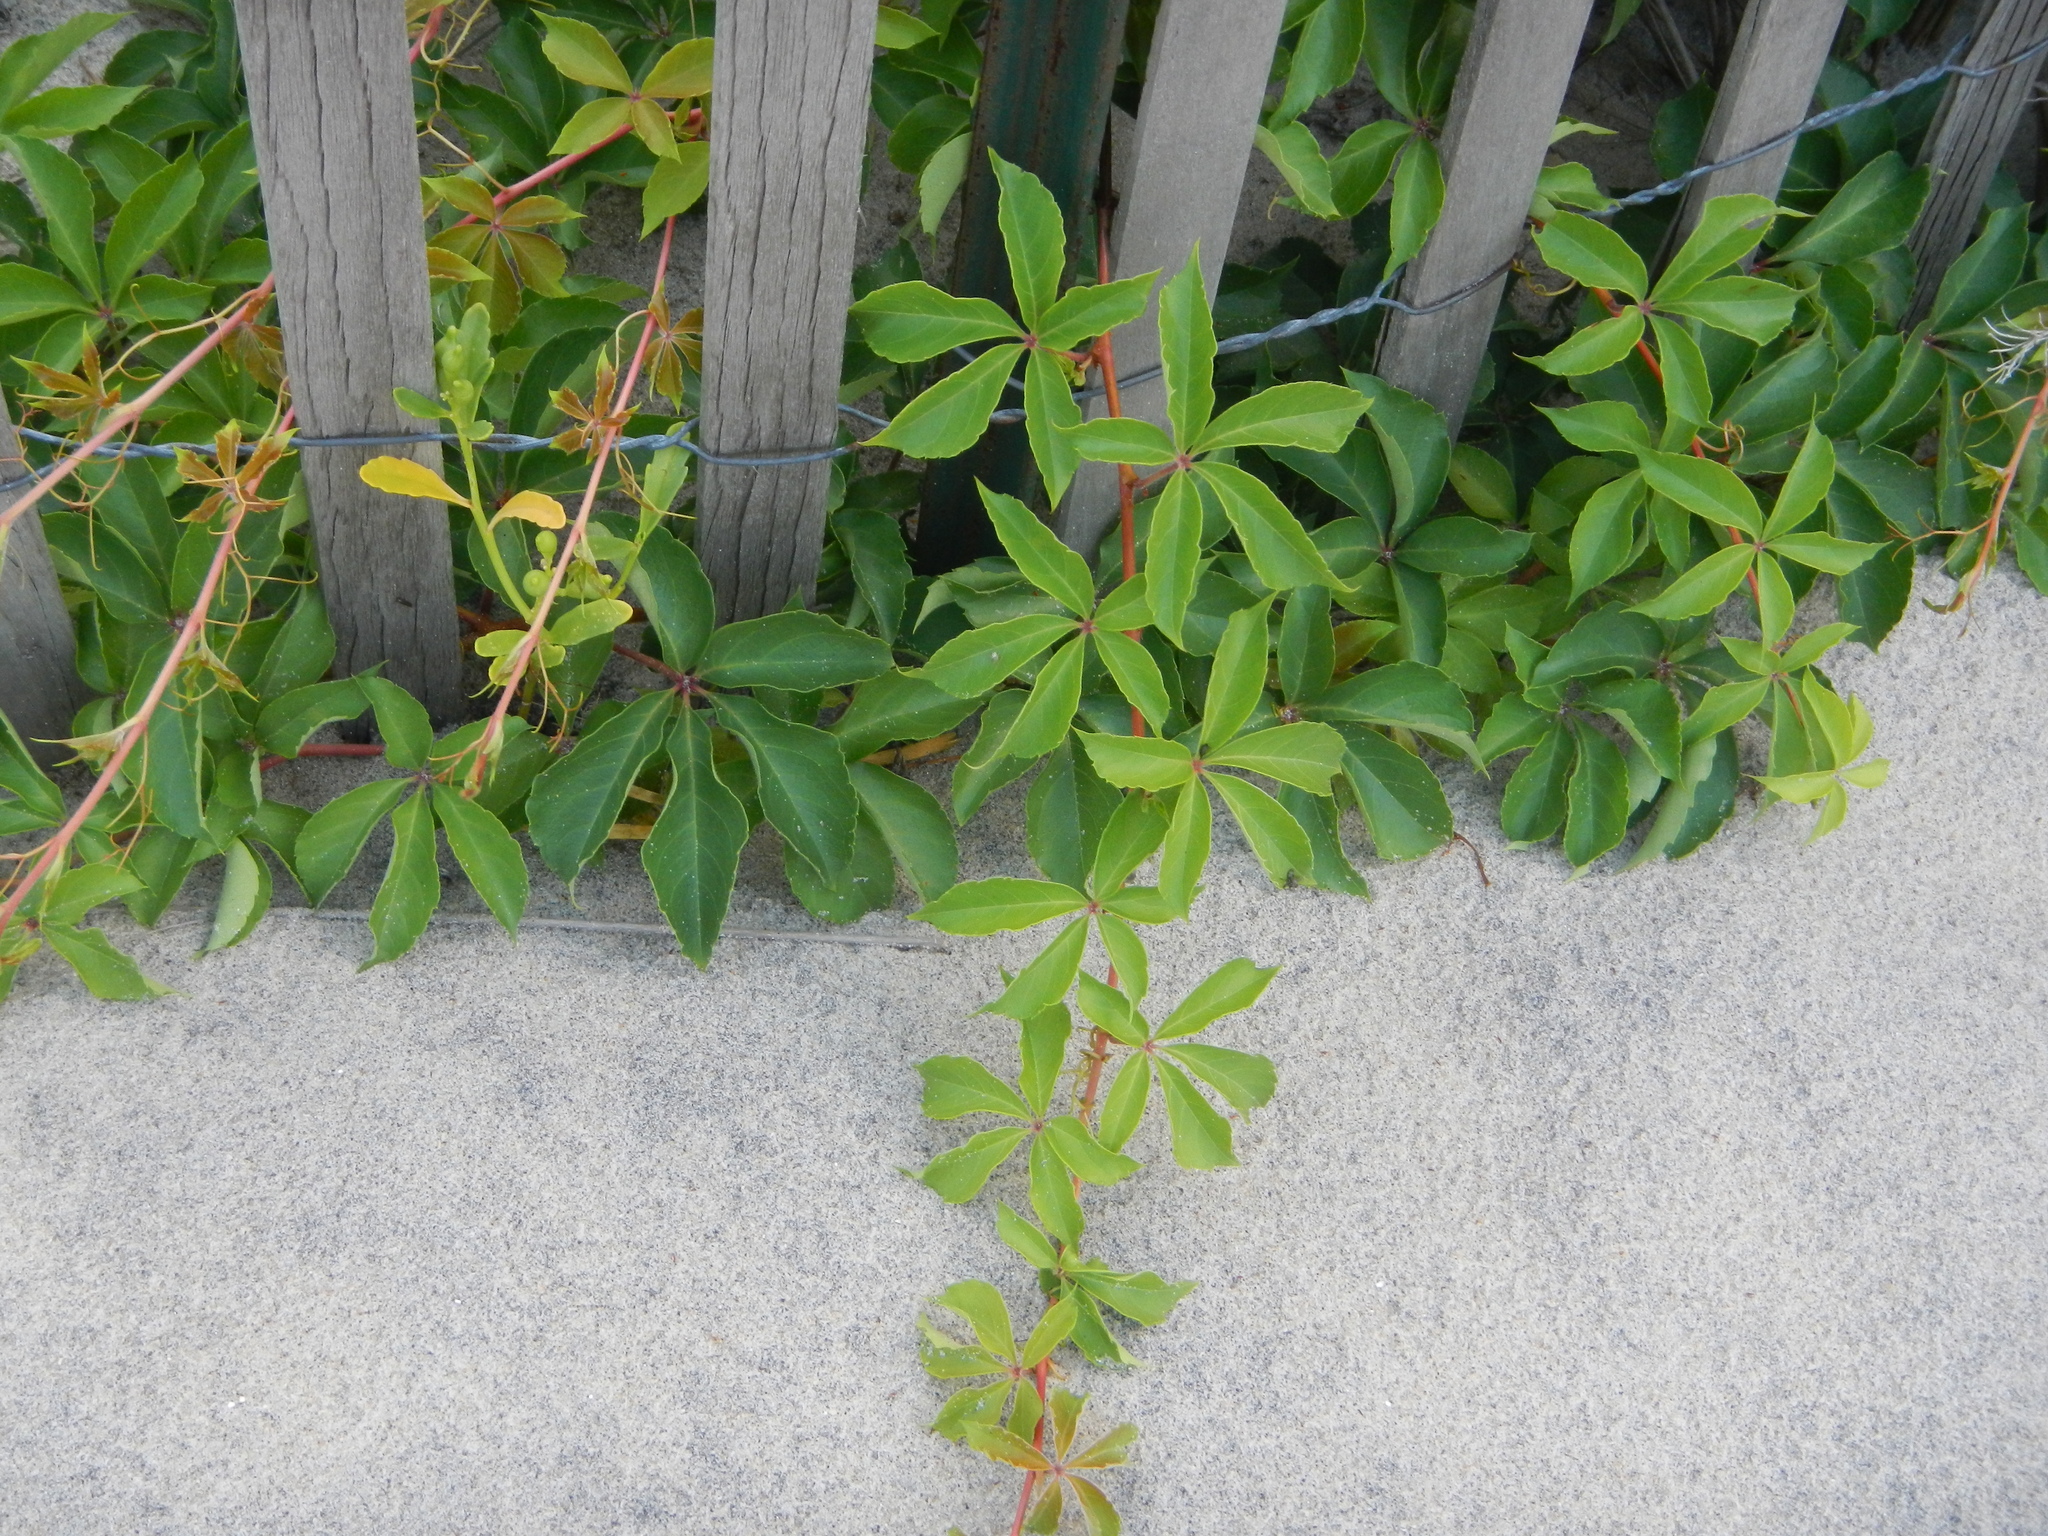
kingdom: Plantae
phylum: Tracheophyta
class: Magnoliopsida
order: Vitales
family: Vitaceae
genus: Parthenocissus
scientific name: Parthenocissus quinquefolia
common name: Virginia-creeper
